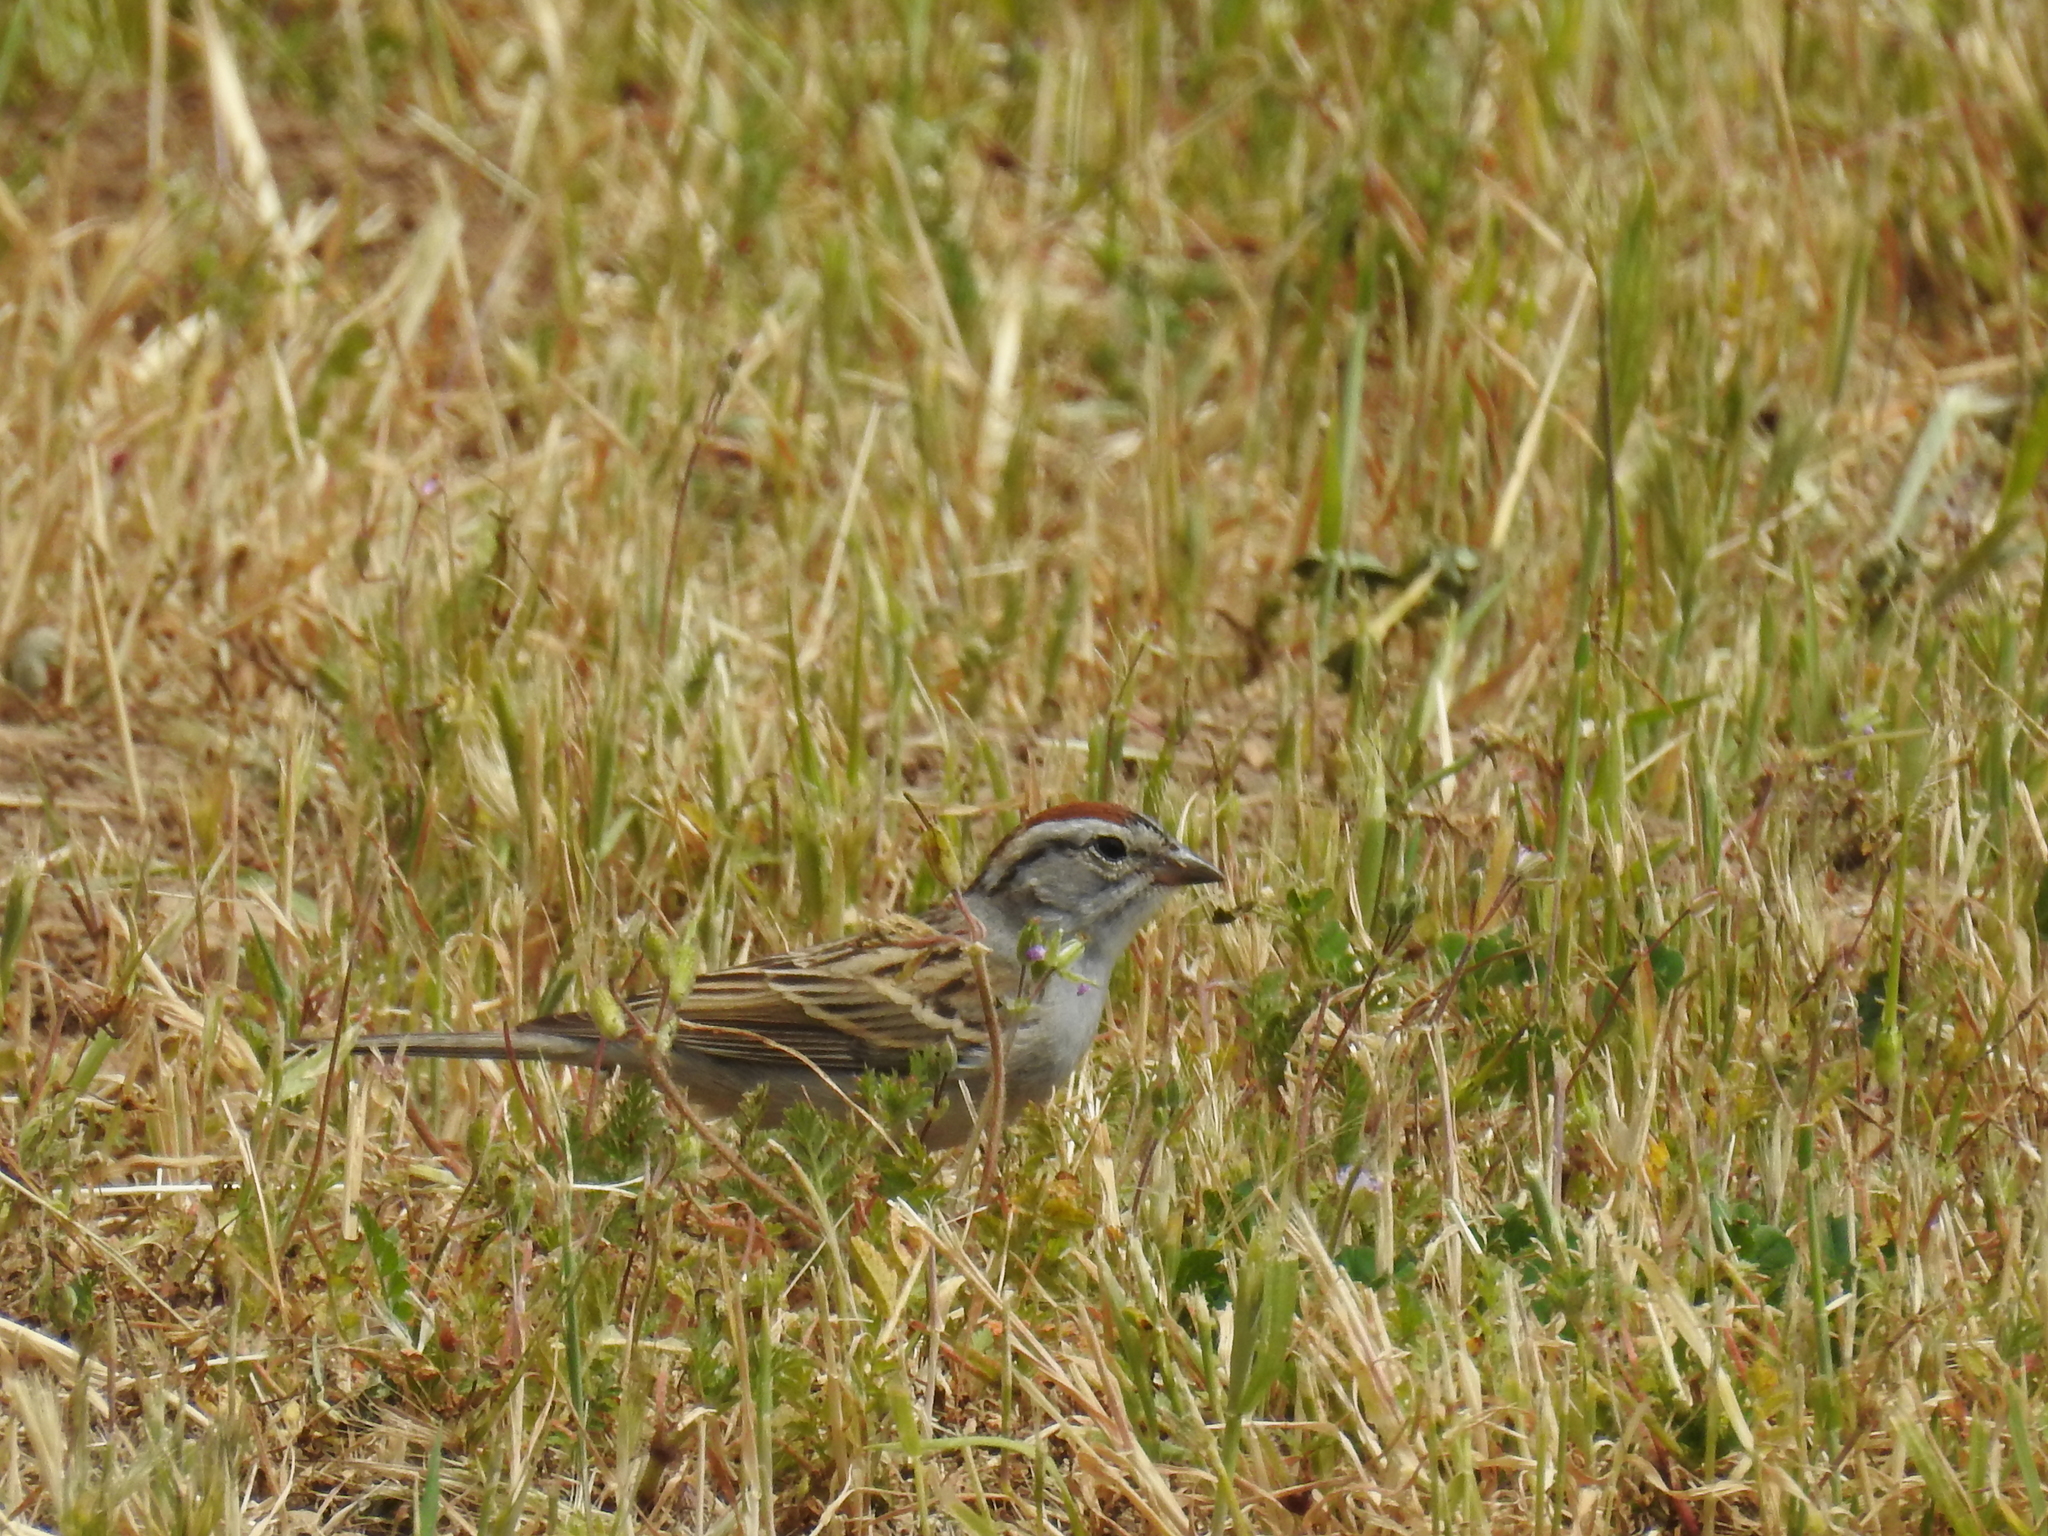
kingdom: Animalia
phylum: Chordata
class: Aves
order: Passeriformes
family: Passerellidae
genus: Spizella
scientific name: Spizella passerina
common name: Chipping sparrow
